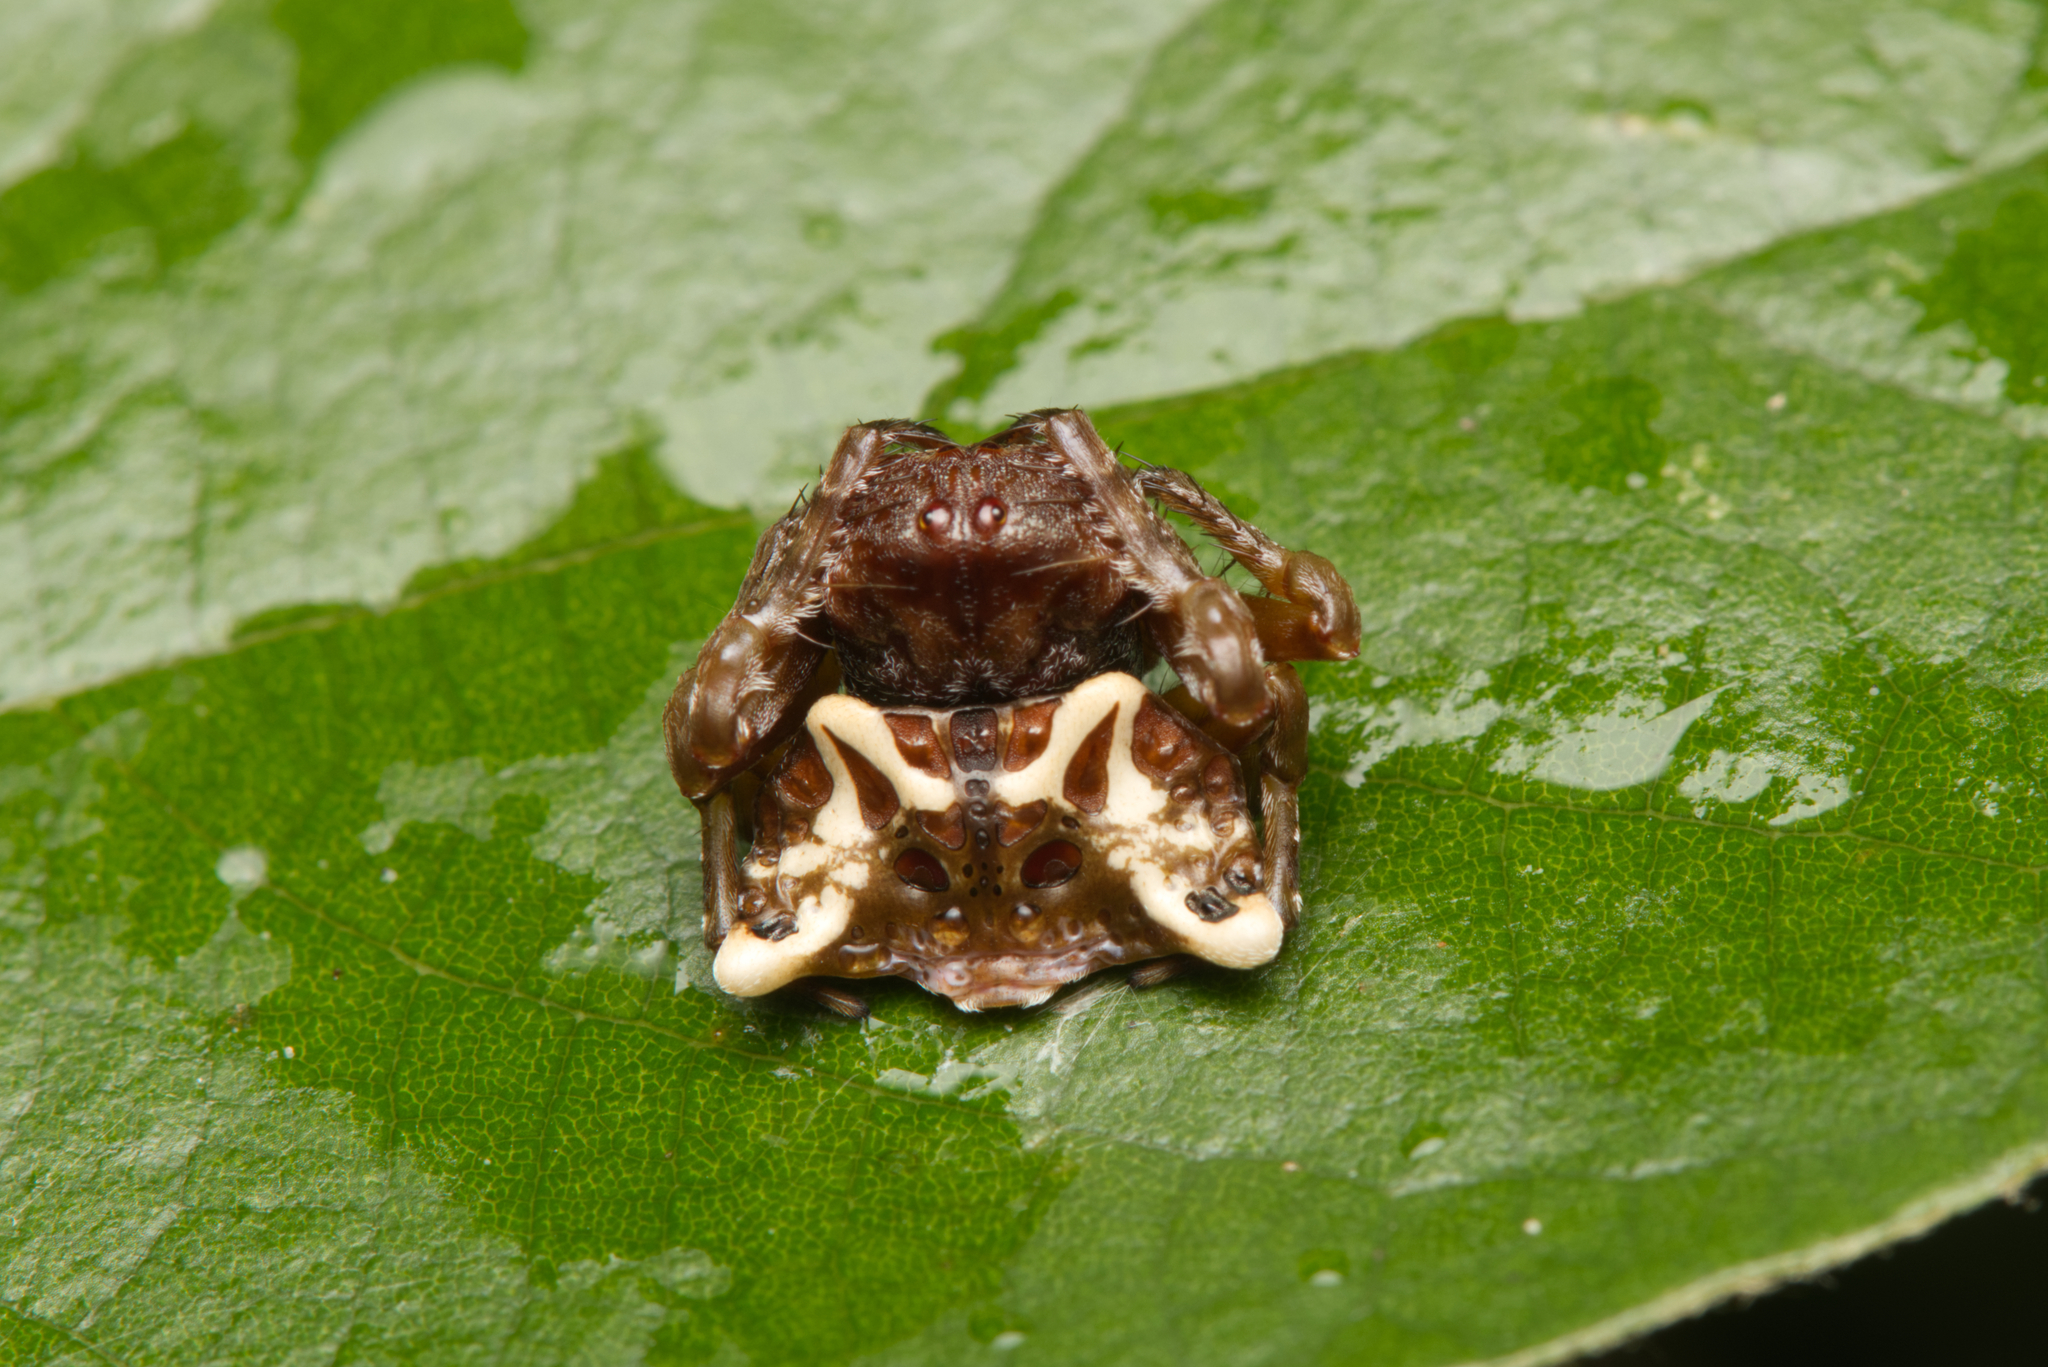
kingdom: Animalia
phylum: Arthropoda
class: Arachnida
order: Araneae
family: Arkyidae
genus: Arkys
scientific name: Arkys curtulus
